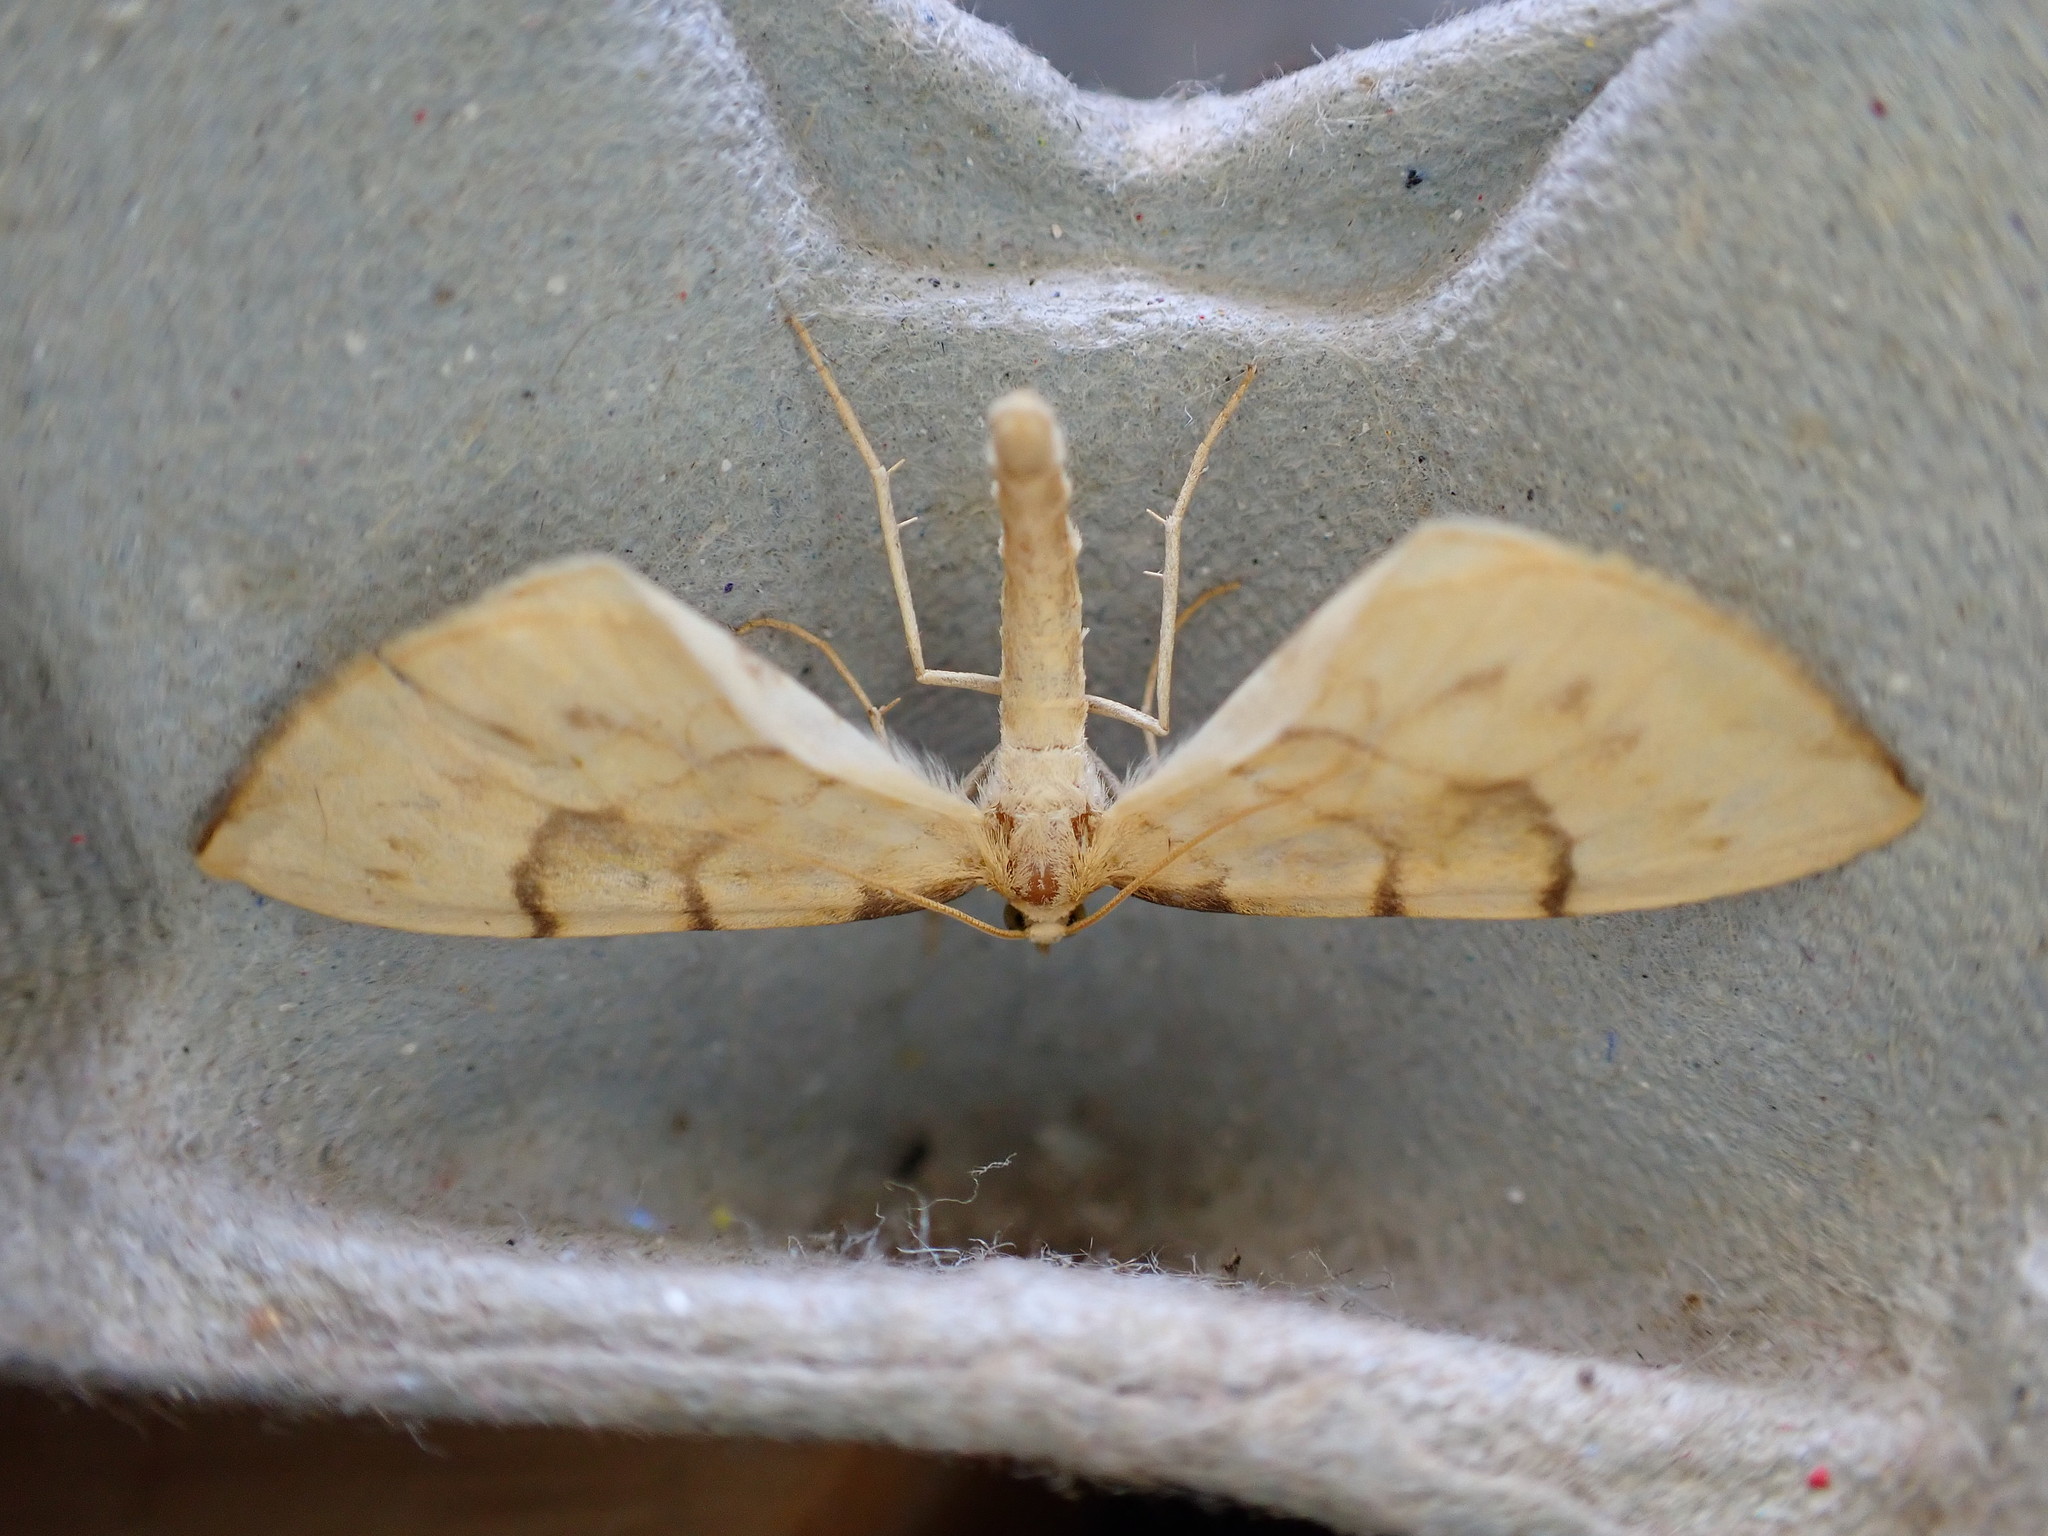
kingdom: Animalia
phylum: Arthropoda
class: Insecta
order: Lepidoptera
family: Geometridae
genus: Eulithis
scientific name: Eulithis pyraliata
